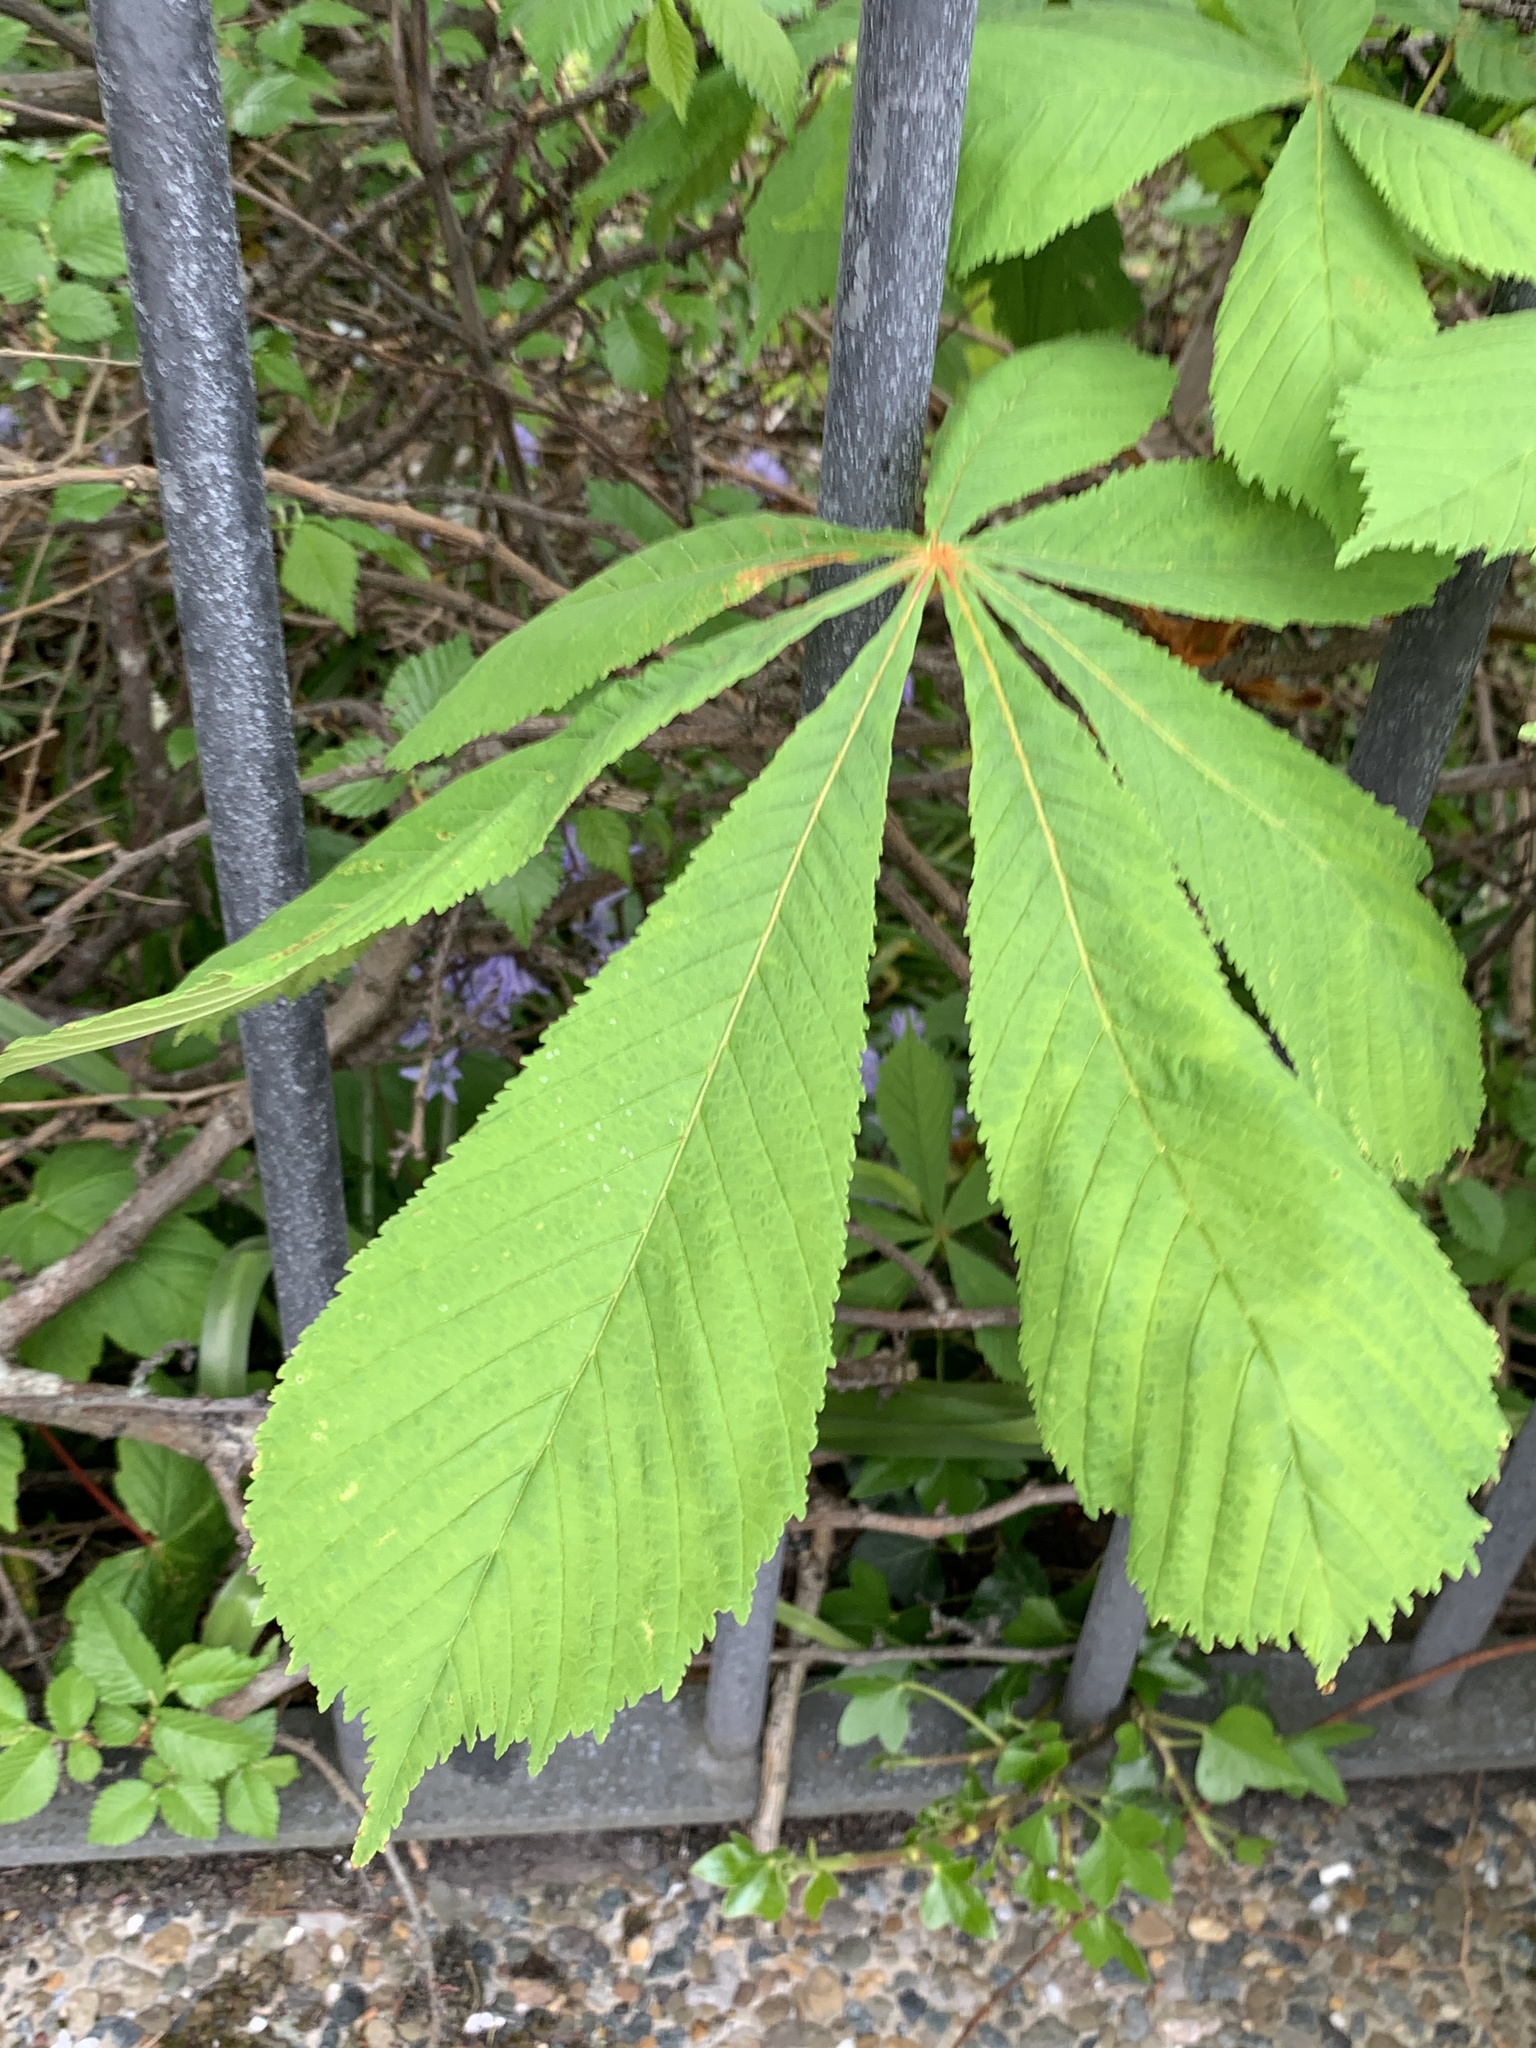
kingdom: Plantae
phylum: Tracheophyta
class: Magnoliopsida
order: Sapindales
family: Sapindaceae
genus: Aesculus
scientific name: Aesculus hippocastanum
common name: Horse-chestnut
